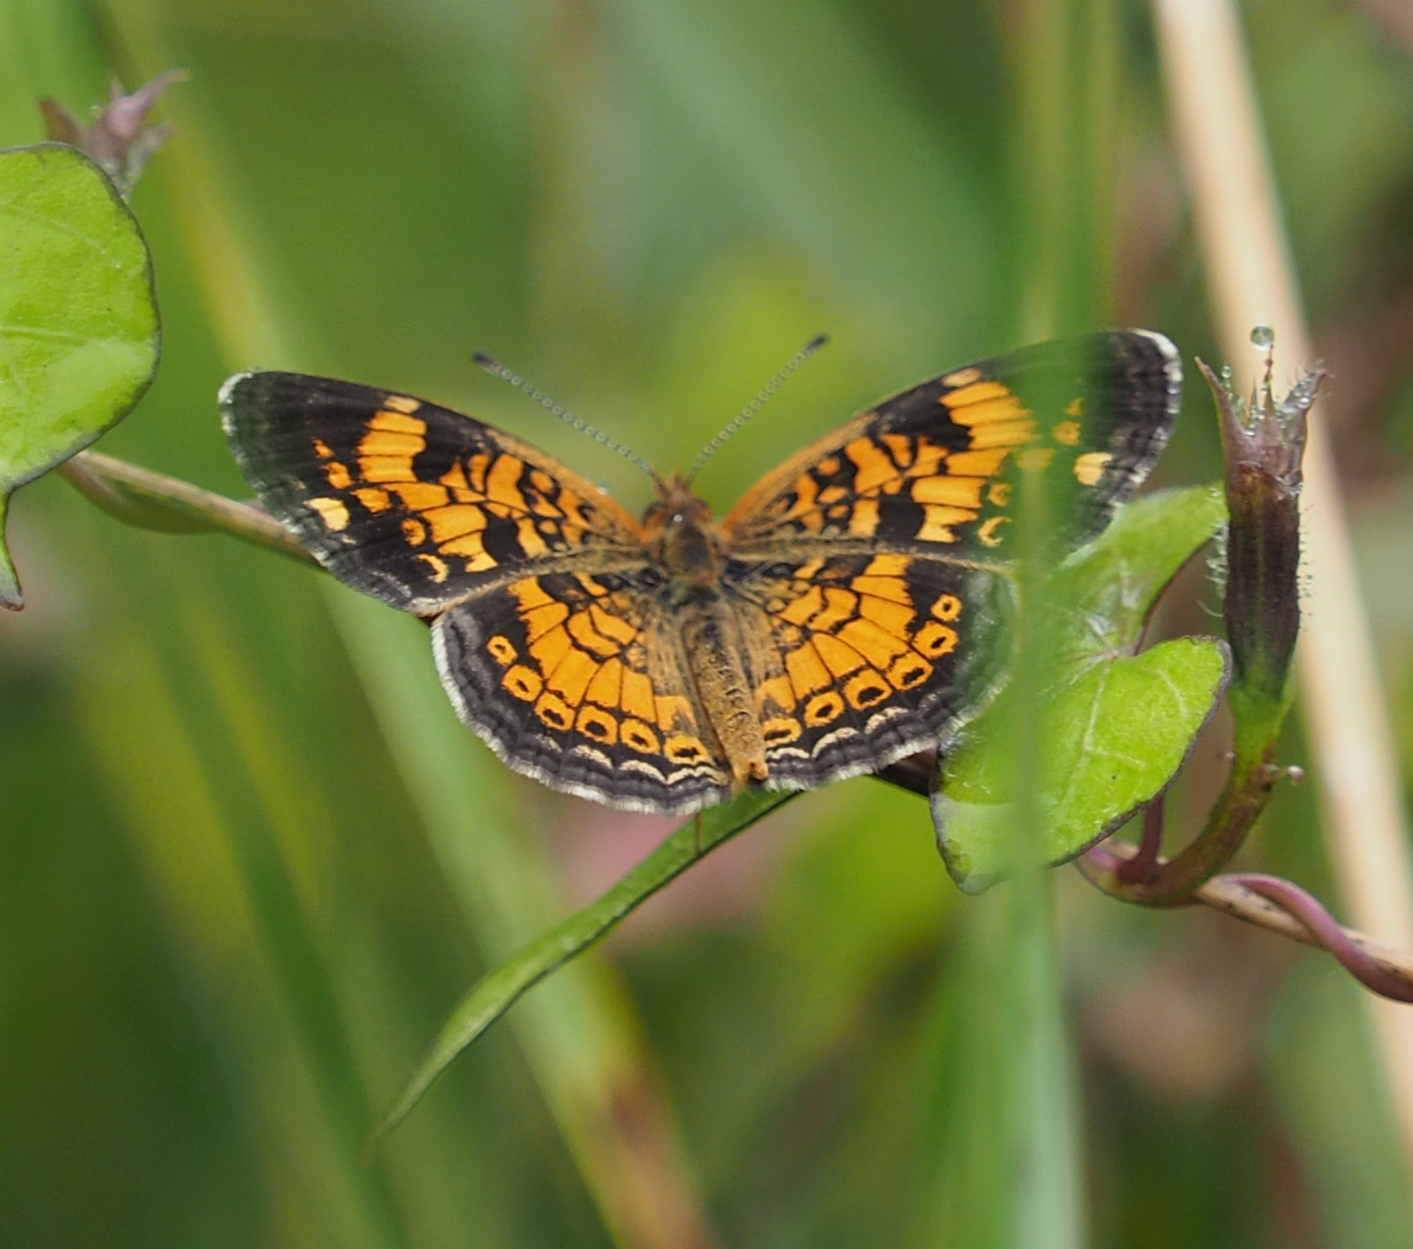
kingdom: Animalia
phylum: Arthropoda
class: Insecta
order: Lepidoptera
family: Nymphalidae
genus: Phyciodes
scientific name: Phyciodes tharos
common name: Pearl crescent
